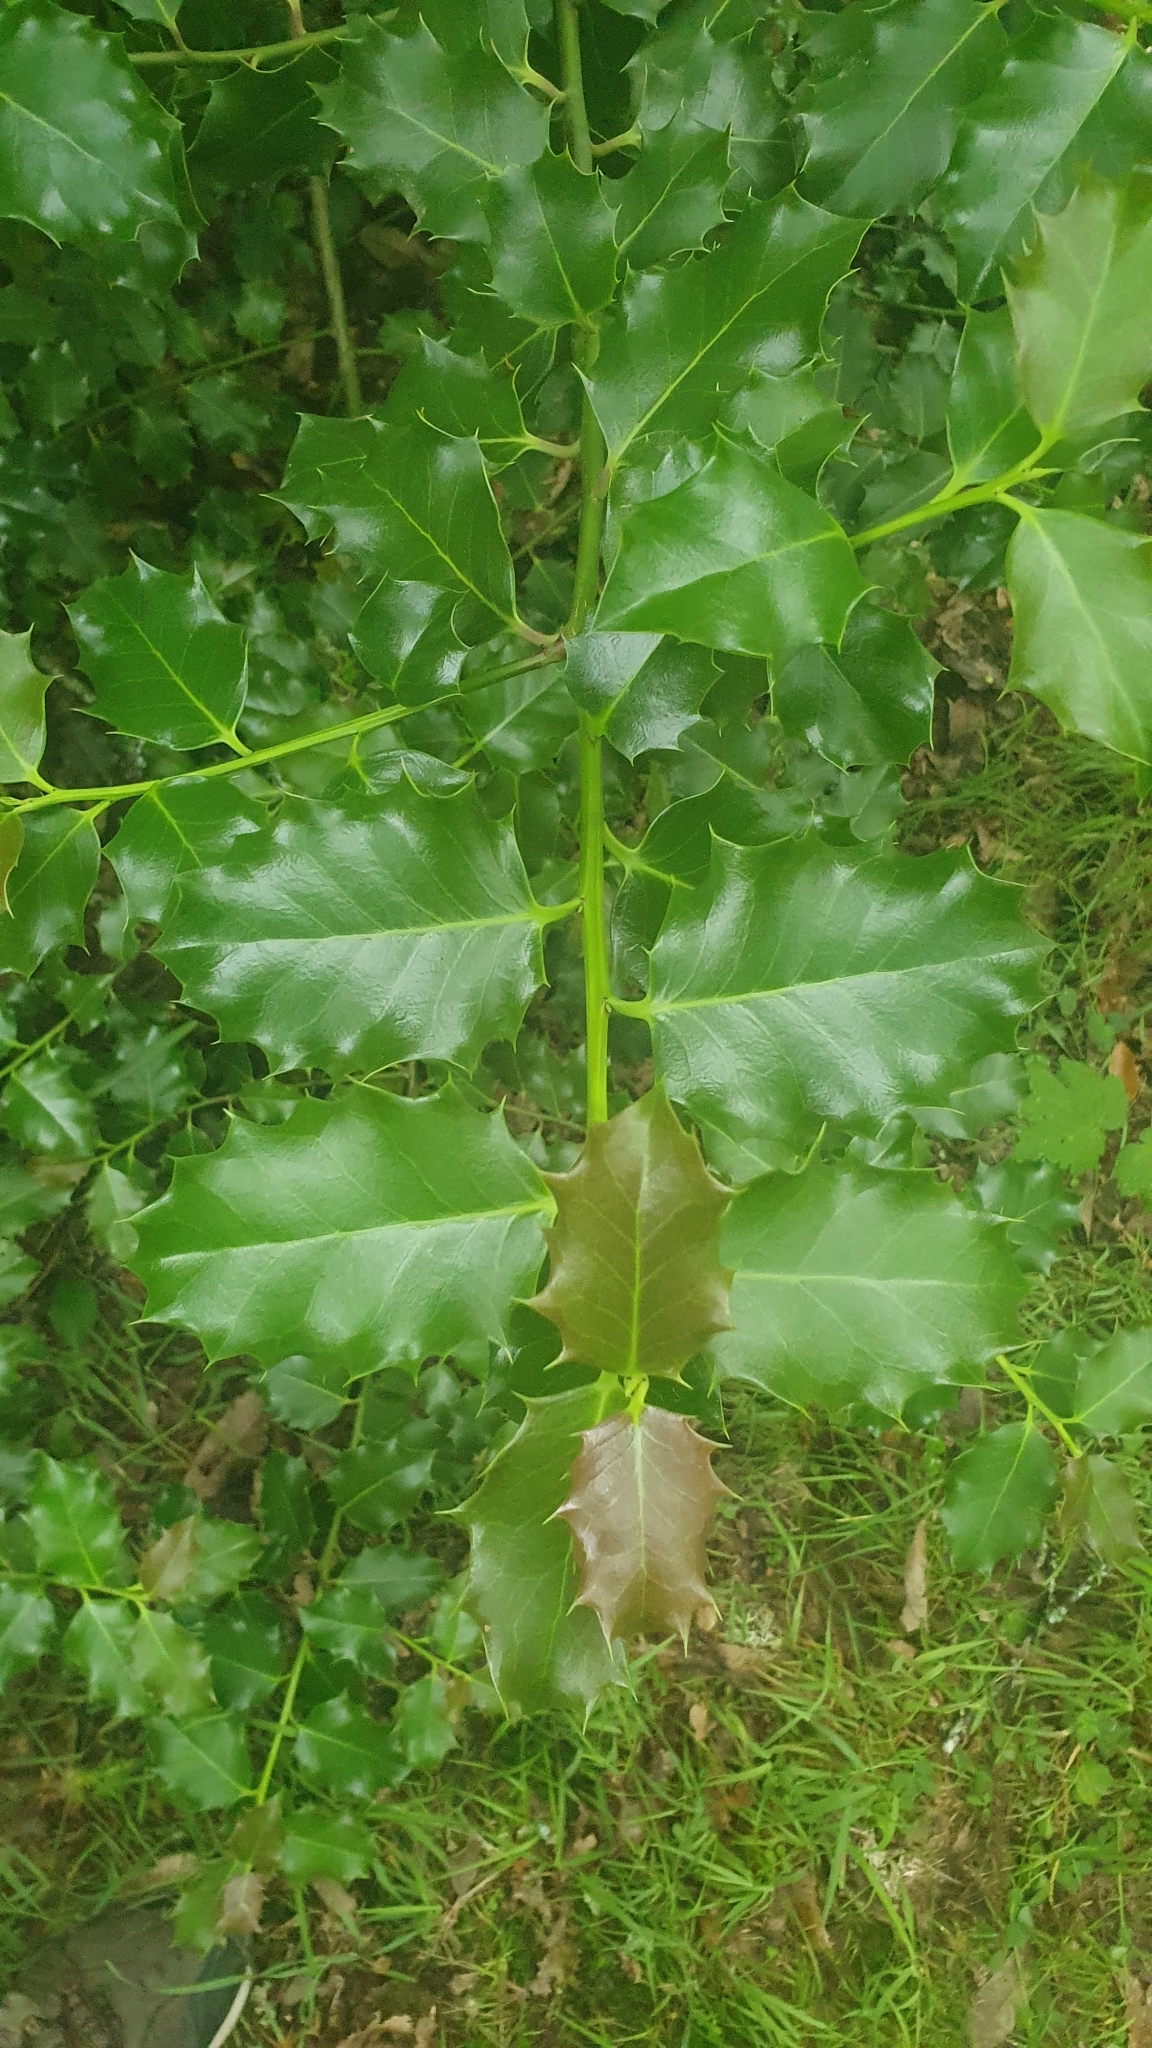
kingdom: Plantae
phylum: Tracheophyta
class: Magnoliopsida
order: Aquifoliales
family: Aquifoliaceae
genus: Ilex
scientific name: Ilex aquifolium
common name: English holly
